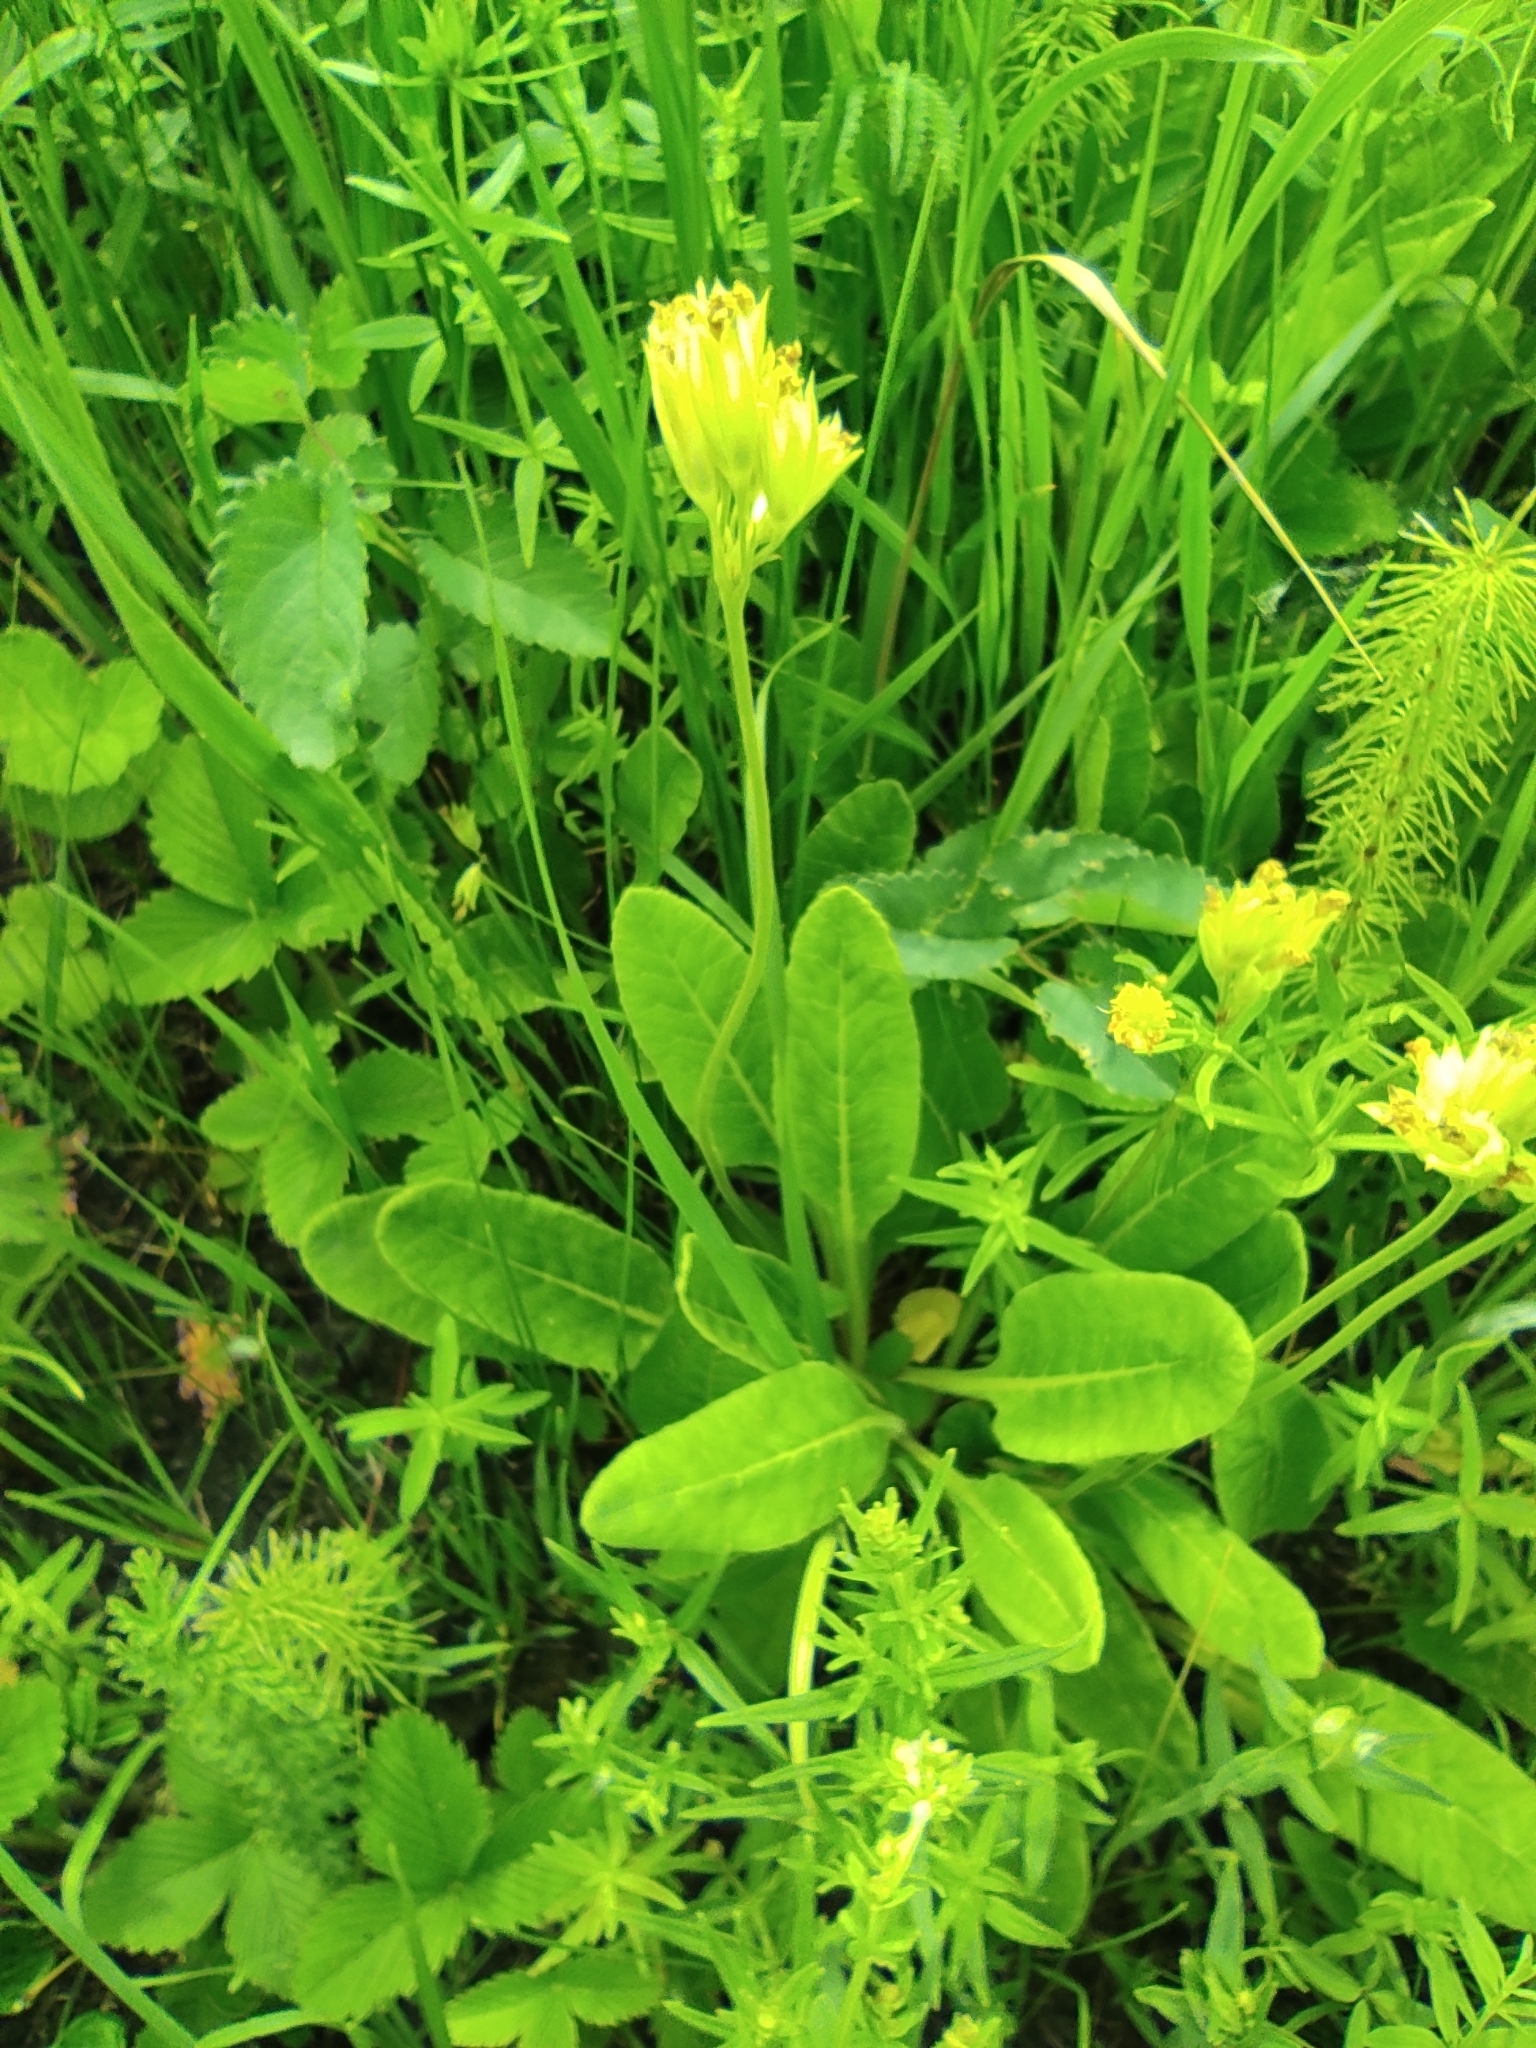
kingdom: Plantae
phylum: Tracheophyta
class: Magnoliopsida
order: Ericales
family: Primulaceae
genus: Primula
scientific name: Primula veris
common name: Cowslip
